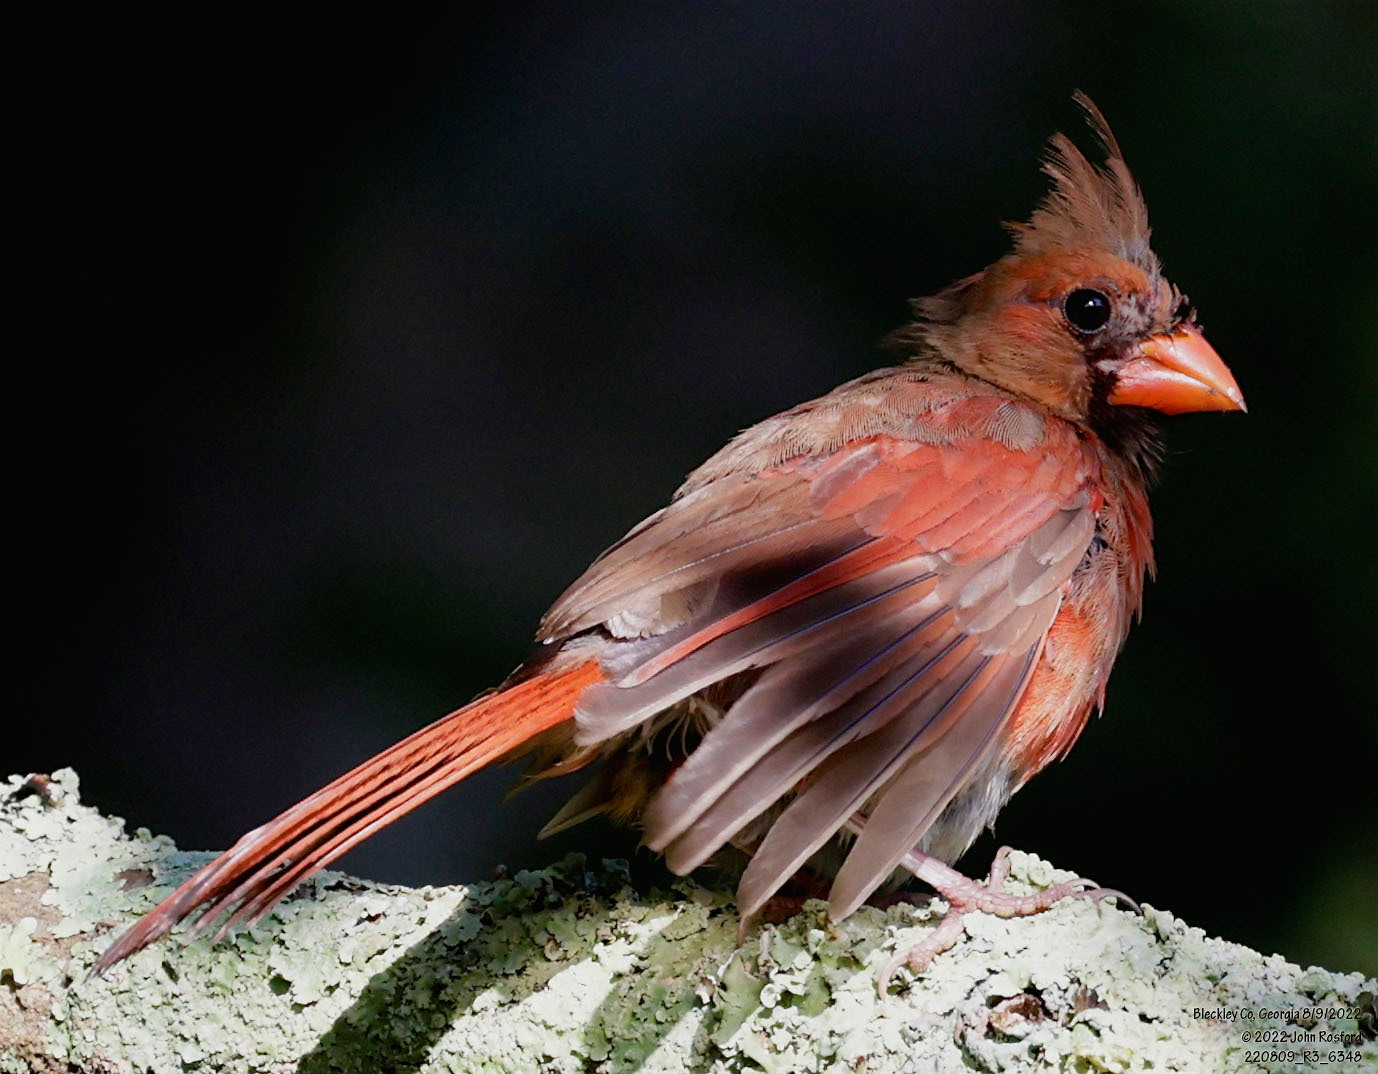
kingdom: Animalia
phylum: Chordata
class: Aves
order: Passeriformes
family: Cardinalidae
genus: Cardinalis
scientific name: Cardinalis cardinalis
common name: Northern cardinal
